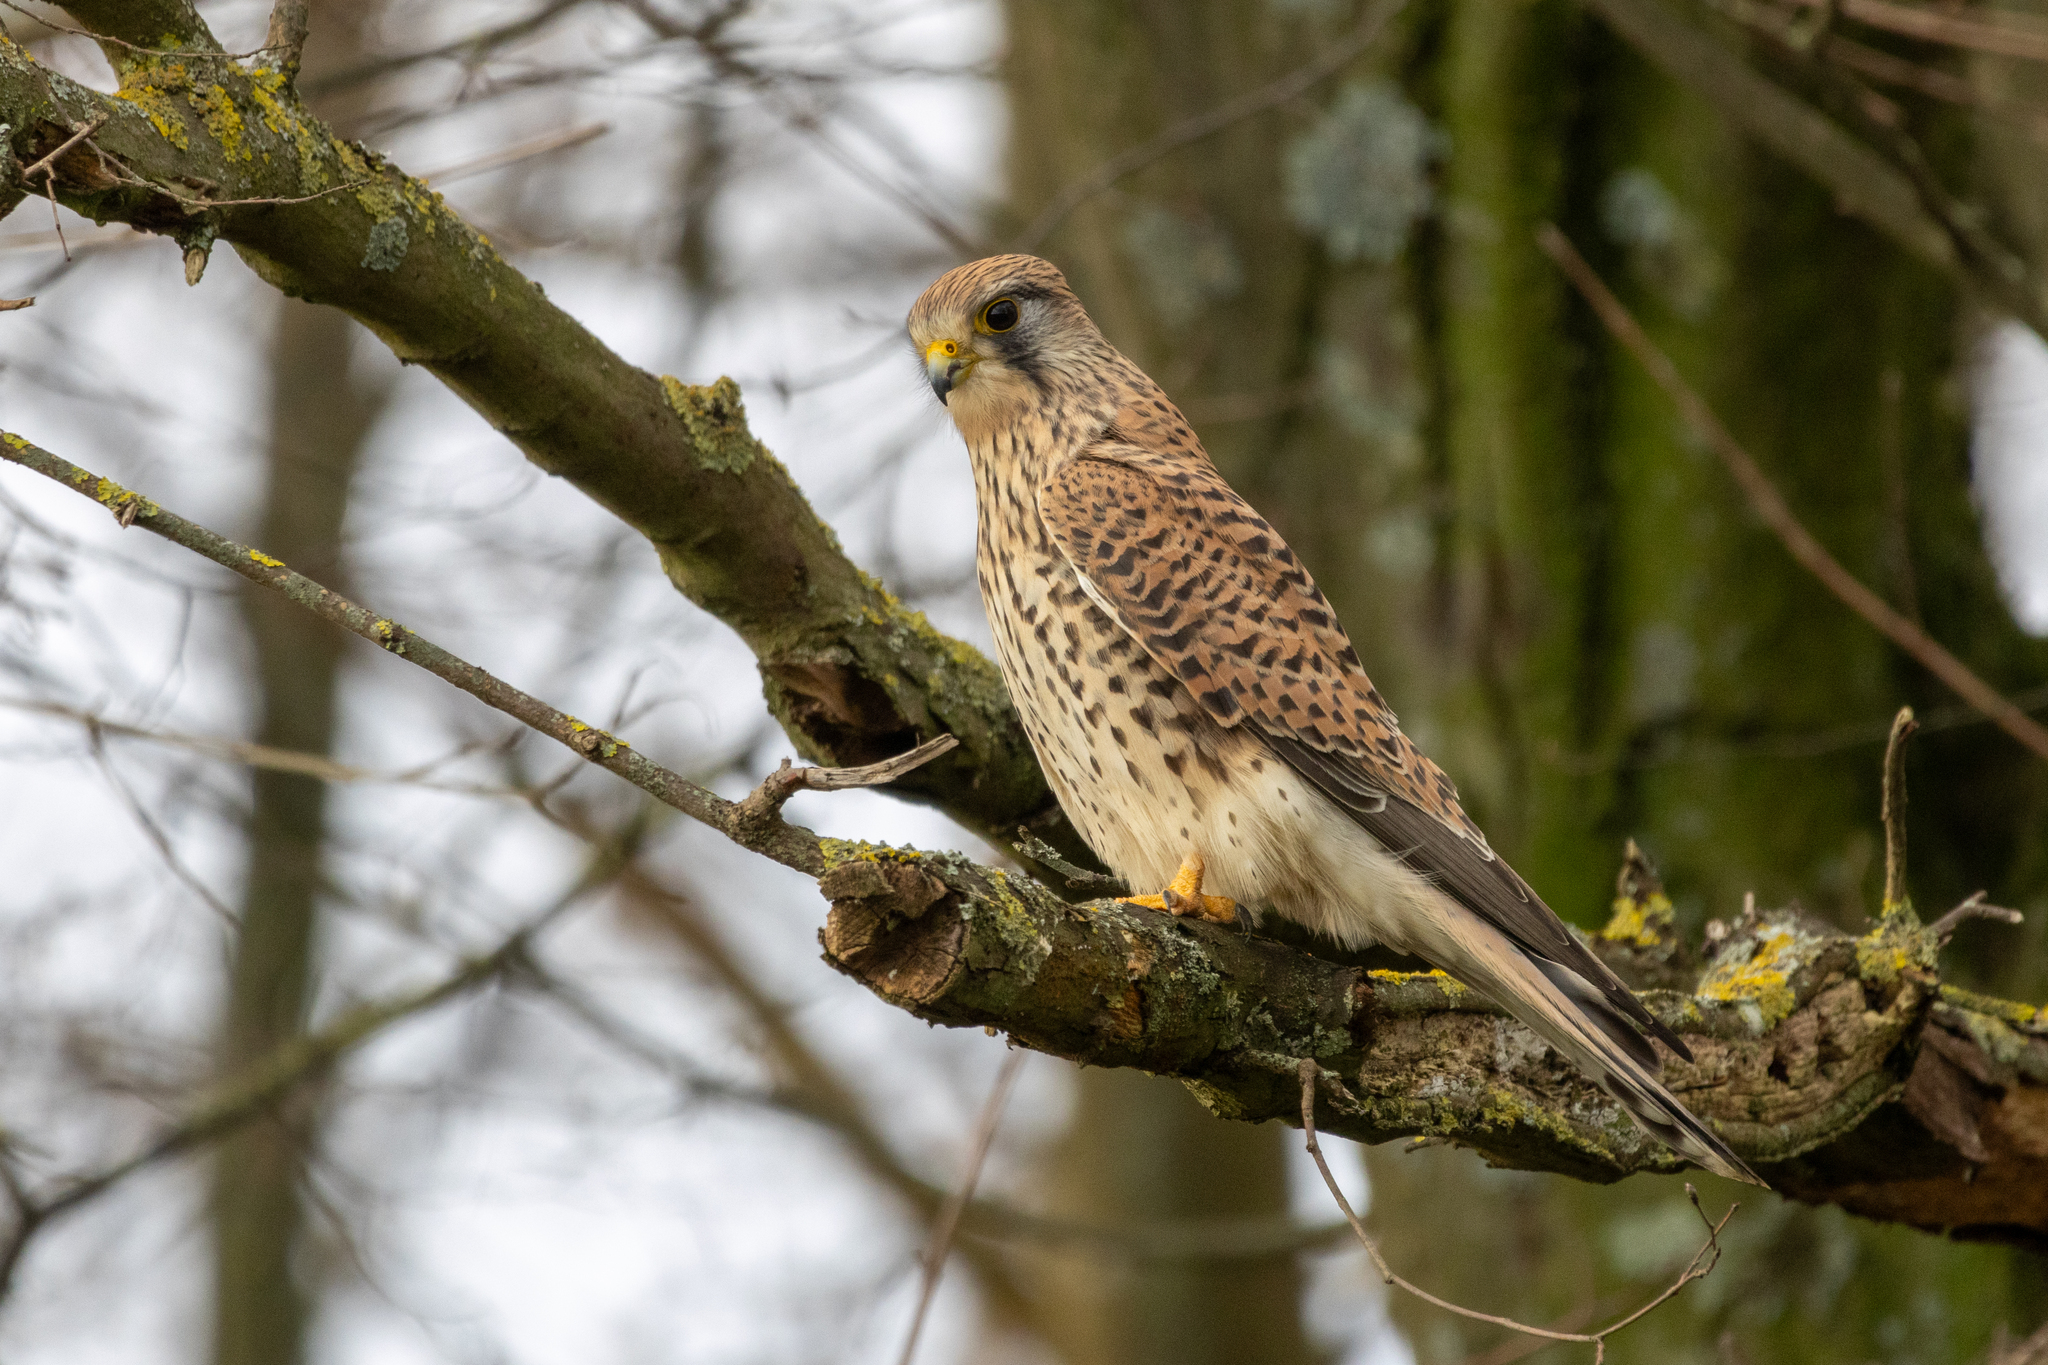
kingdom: Animalia
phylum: Chordata
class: Aves
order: Falconiformes
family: Falconidae
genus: Falco
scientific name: Falco tinnunculus
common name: Common kestrel
